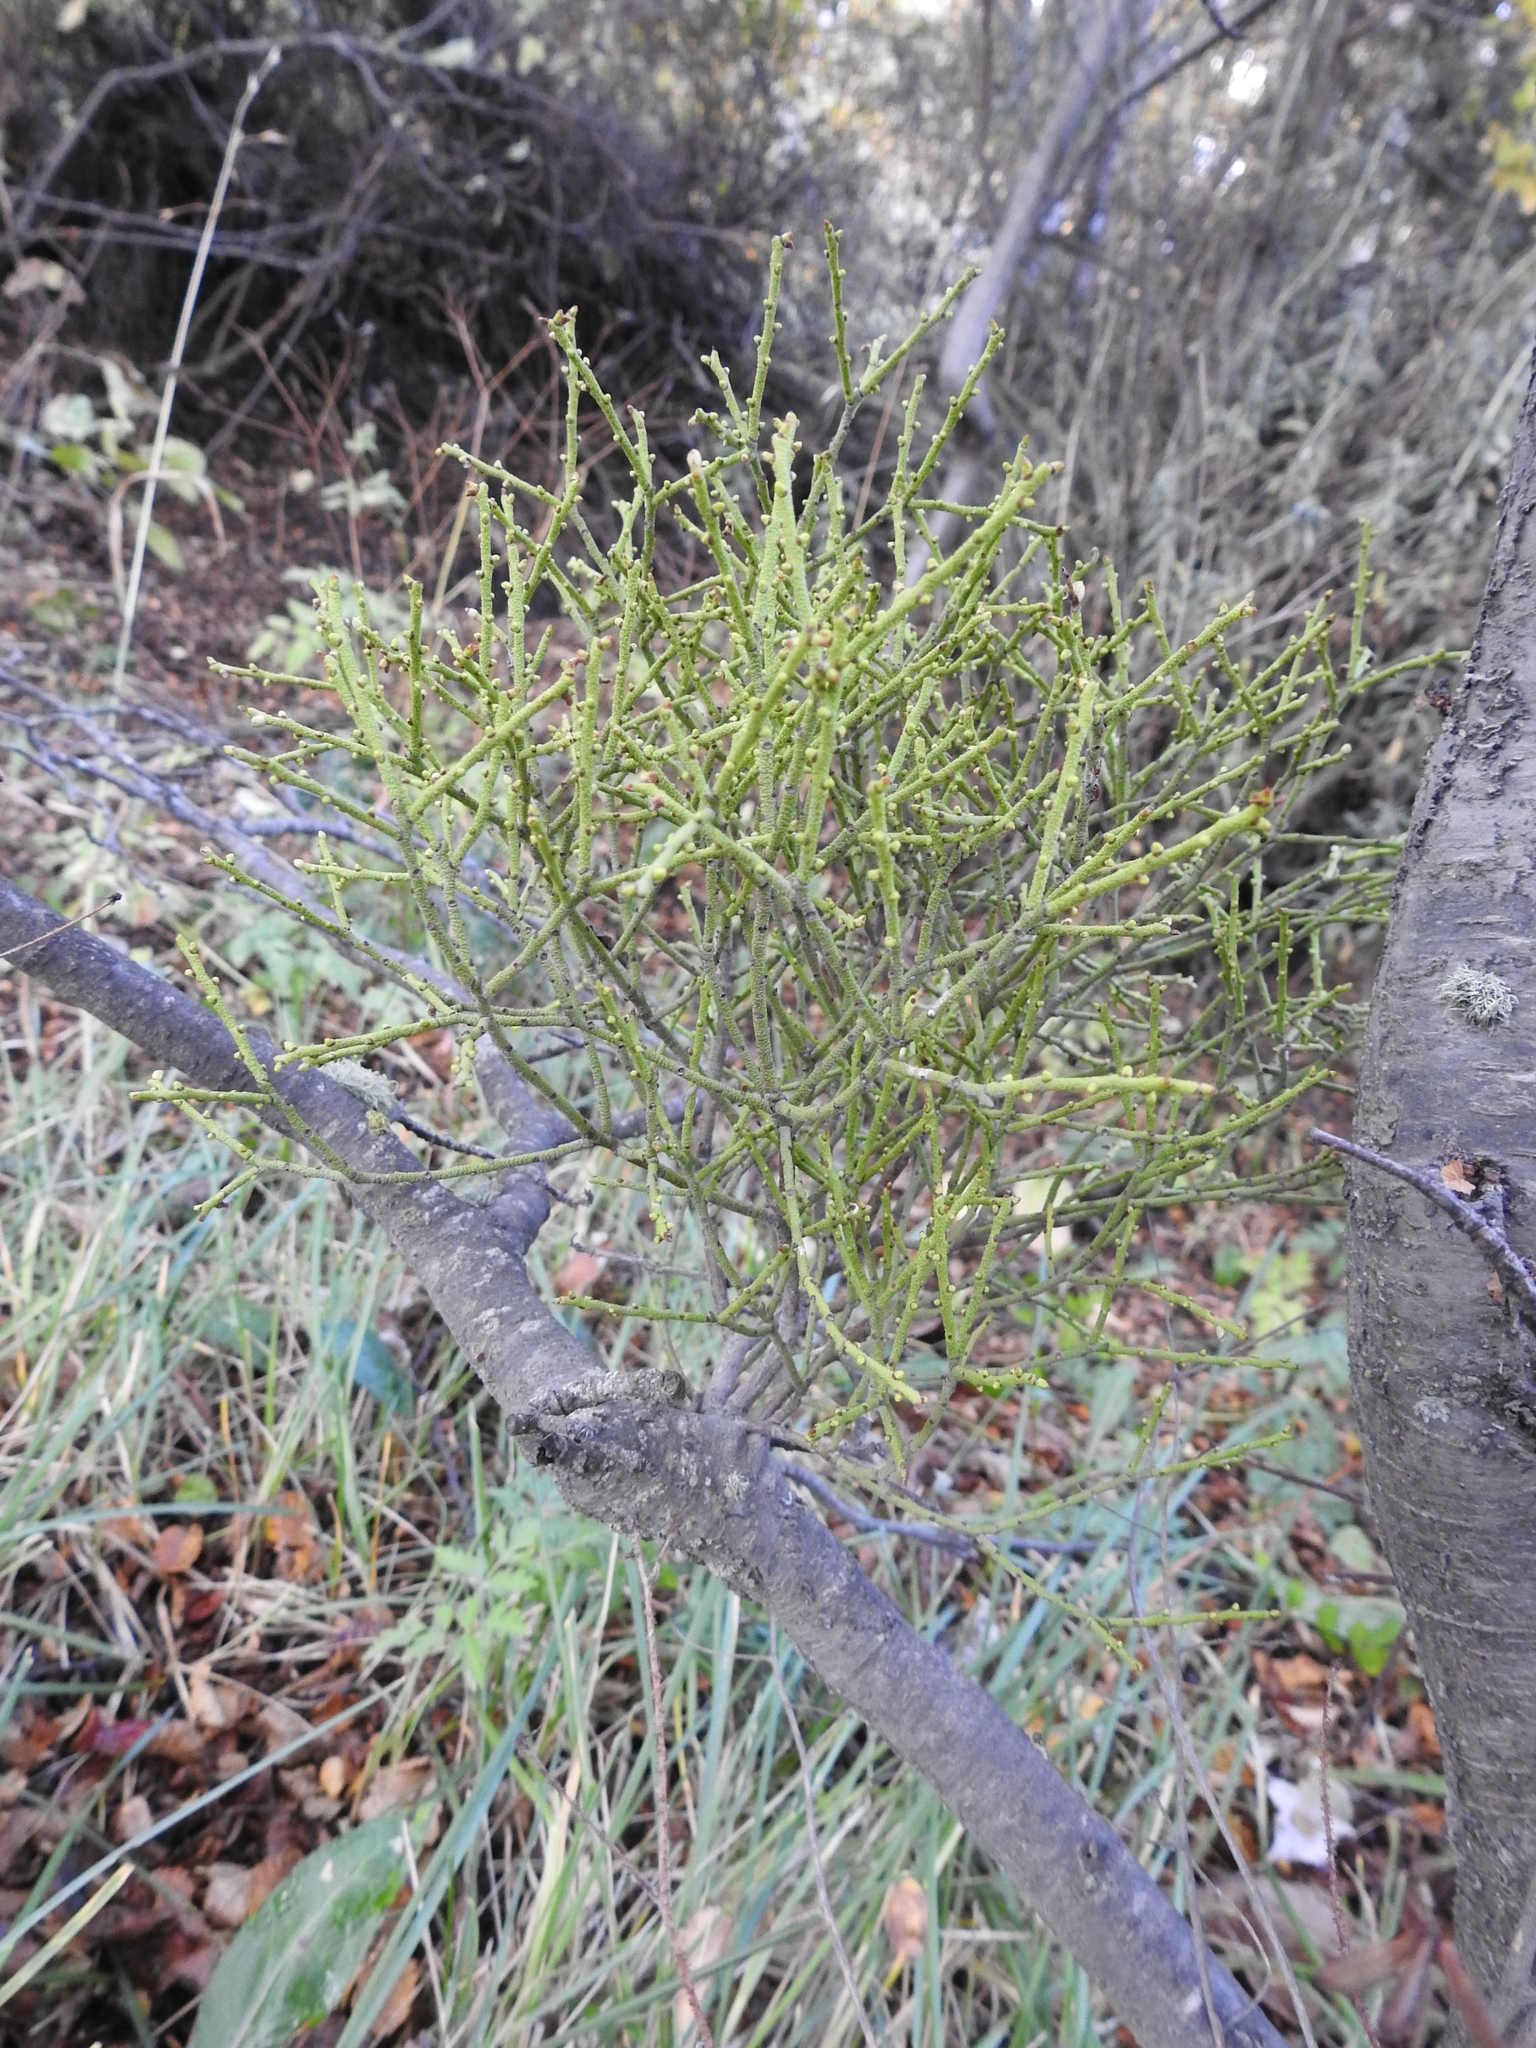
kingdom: Plantae
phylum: Tracheophyta
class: Magnoliopsida
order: Santalales
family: Misodendraceae
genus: Misodendrum
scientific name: Misodendrum punctulatum
